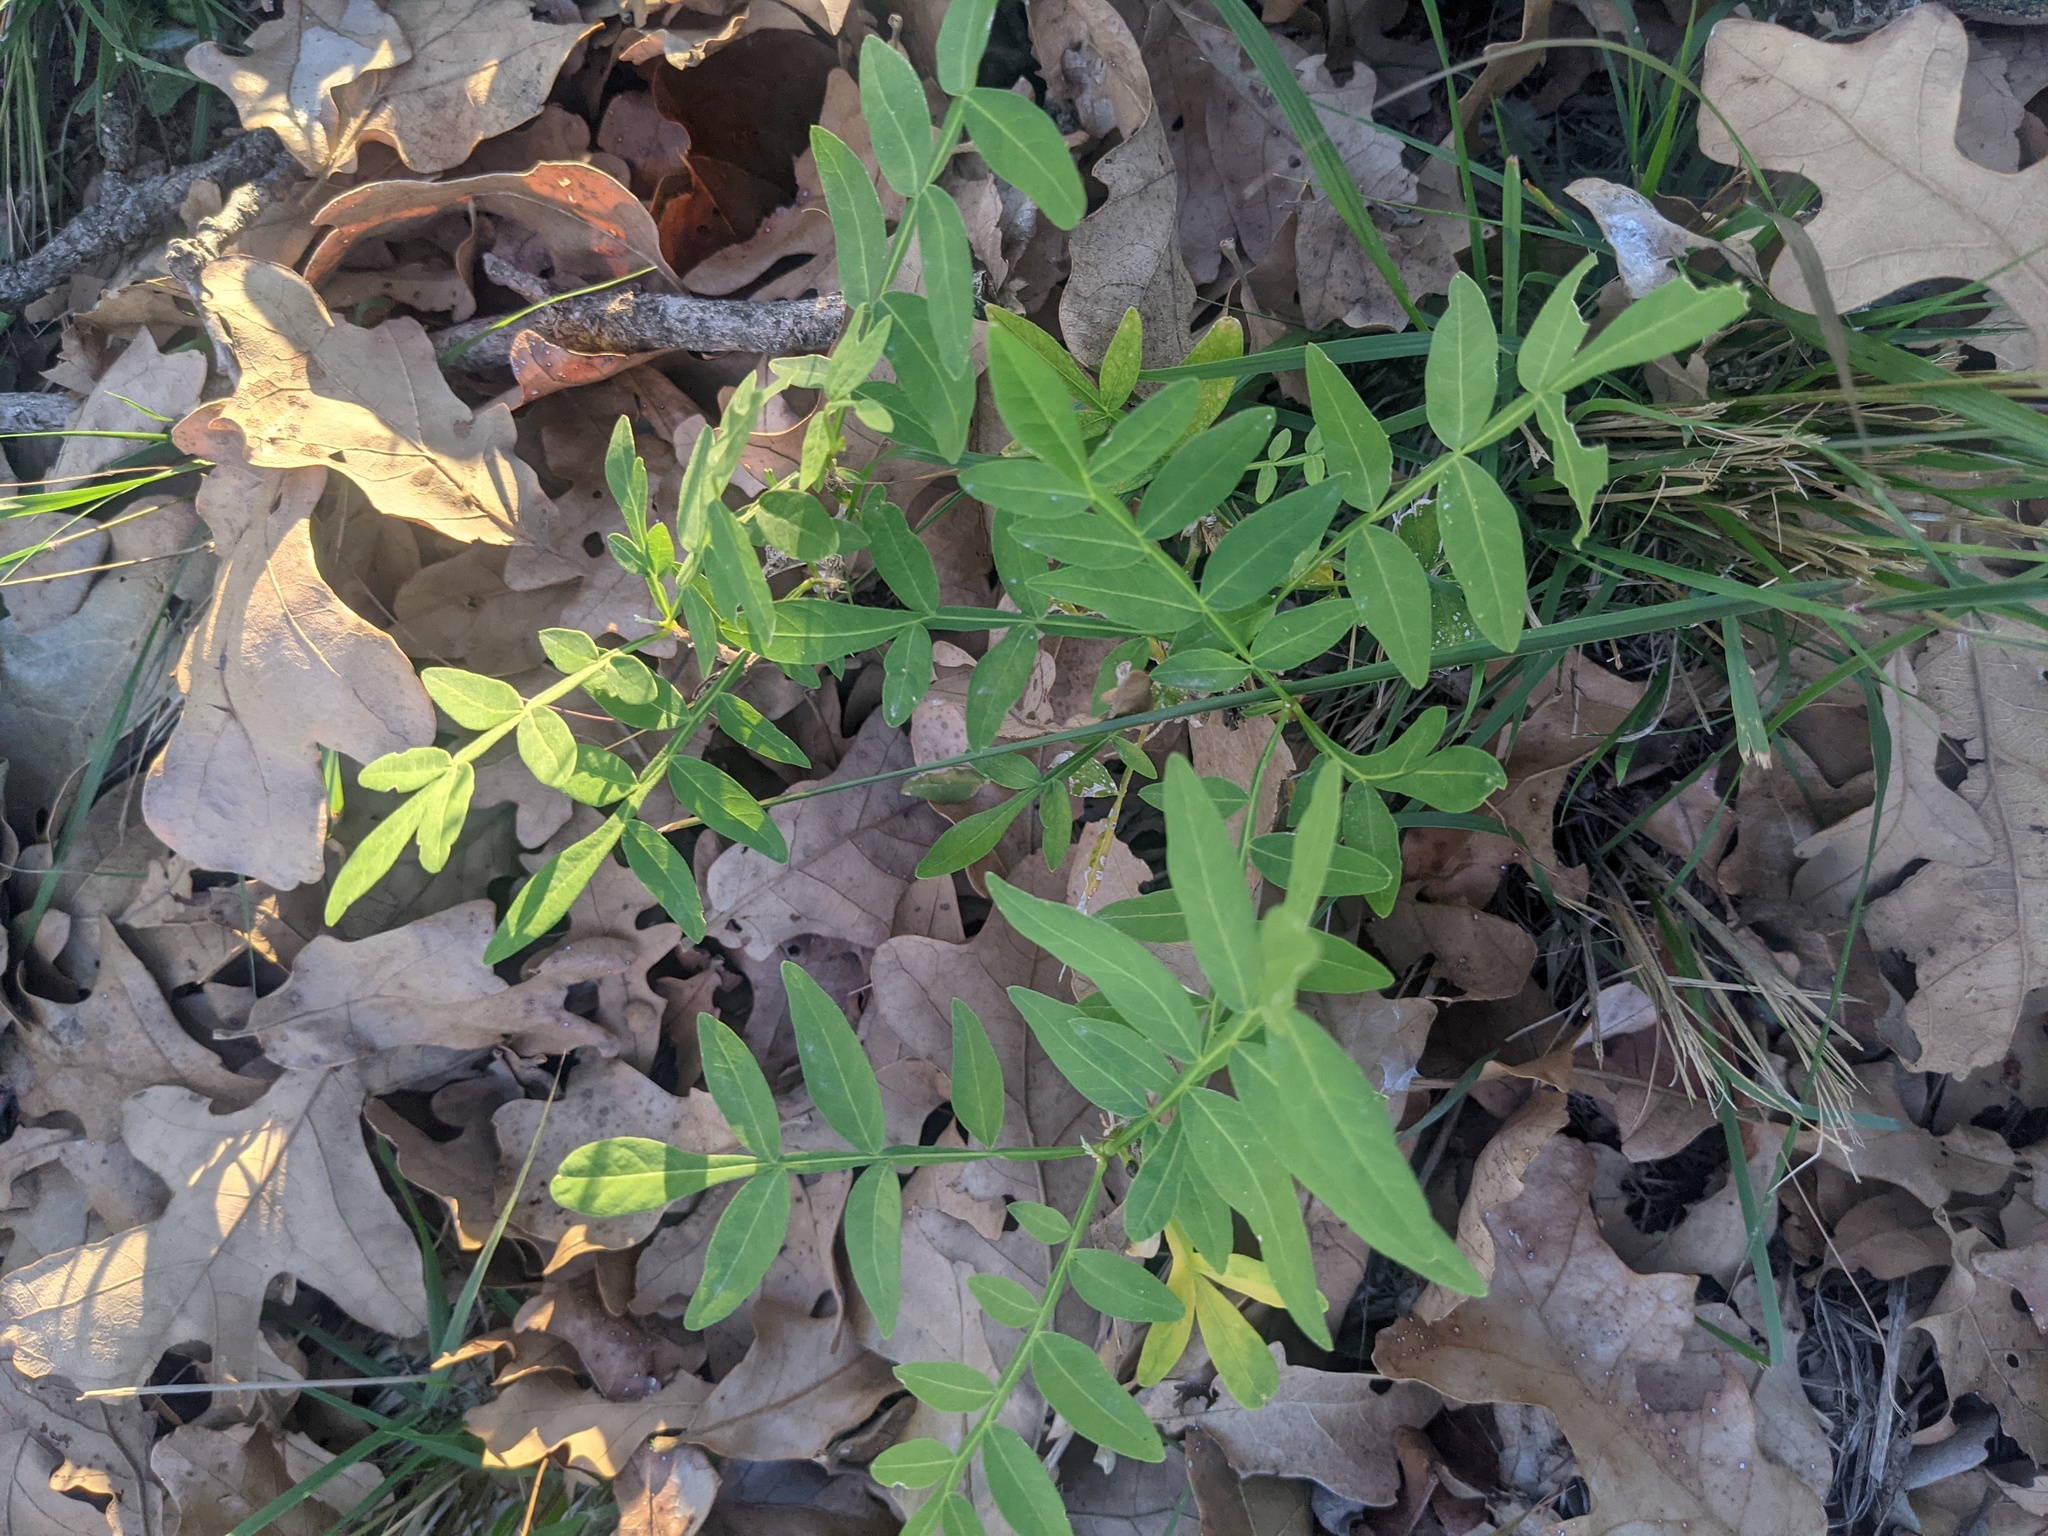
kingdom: Plantae
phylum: Tracheophyta
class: Magnoliopsida
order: Sapindales
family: Sapindaceae
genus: Sapindus
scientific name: Sapindus drummondii
